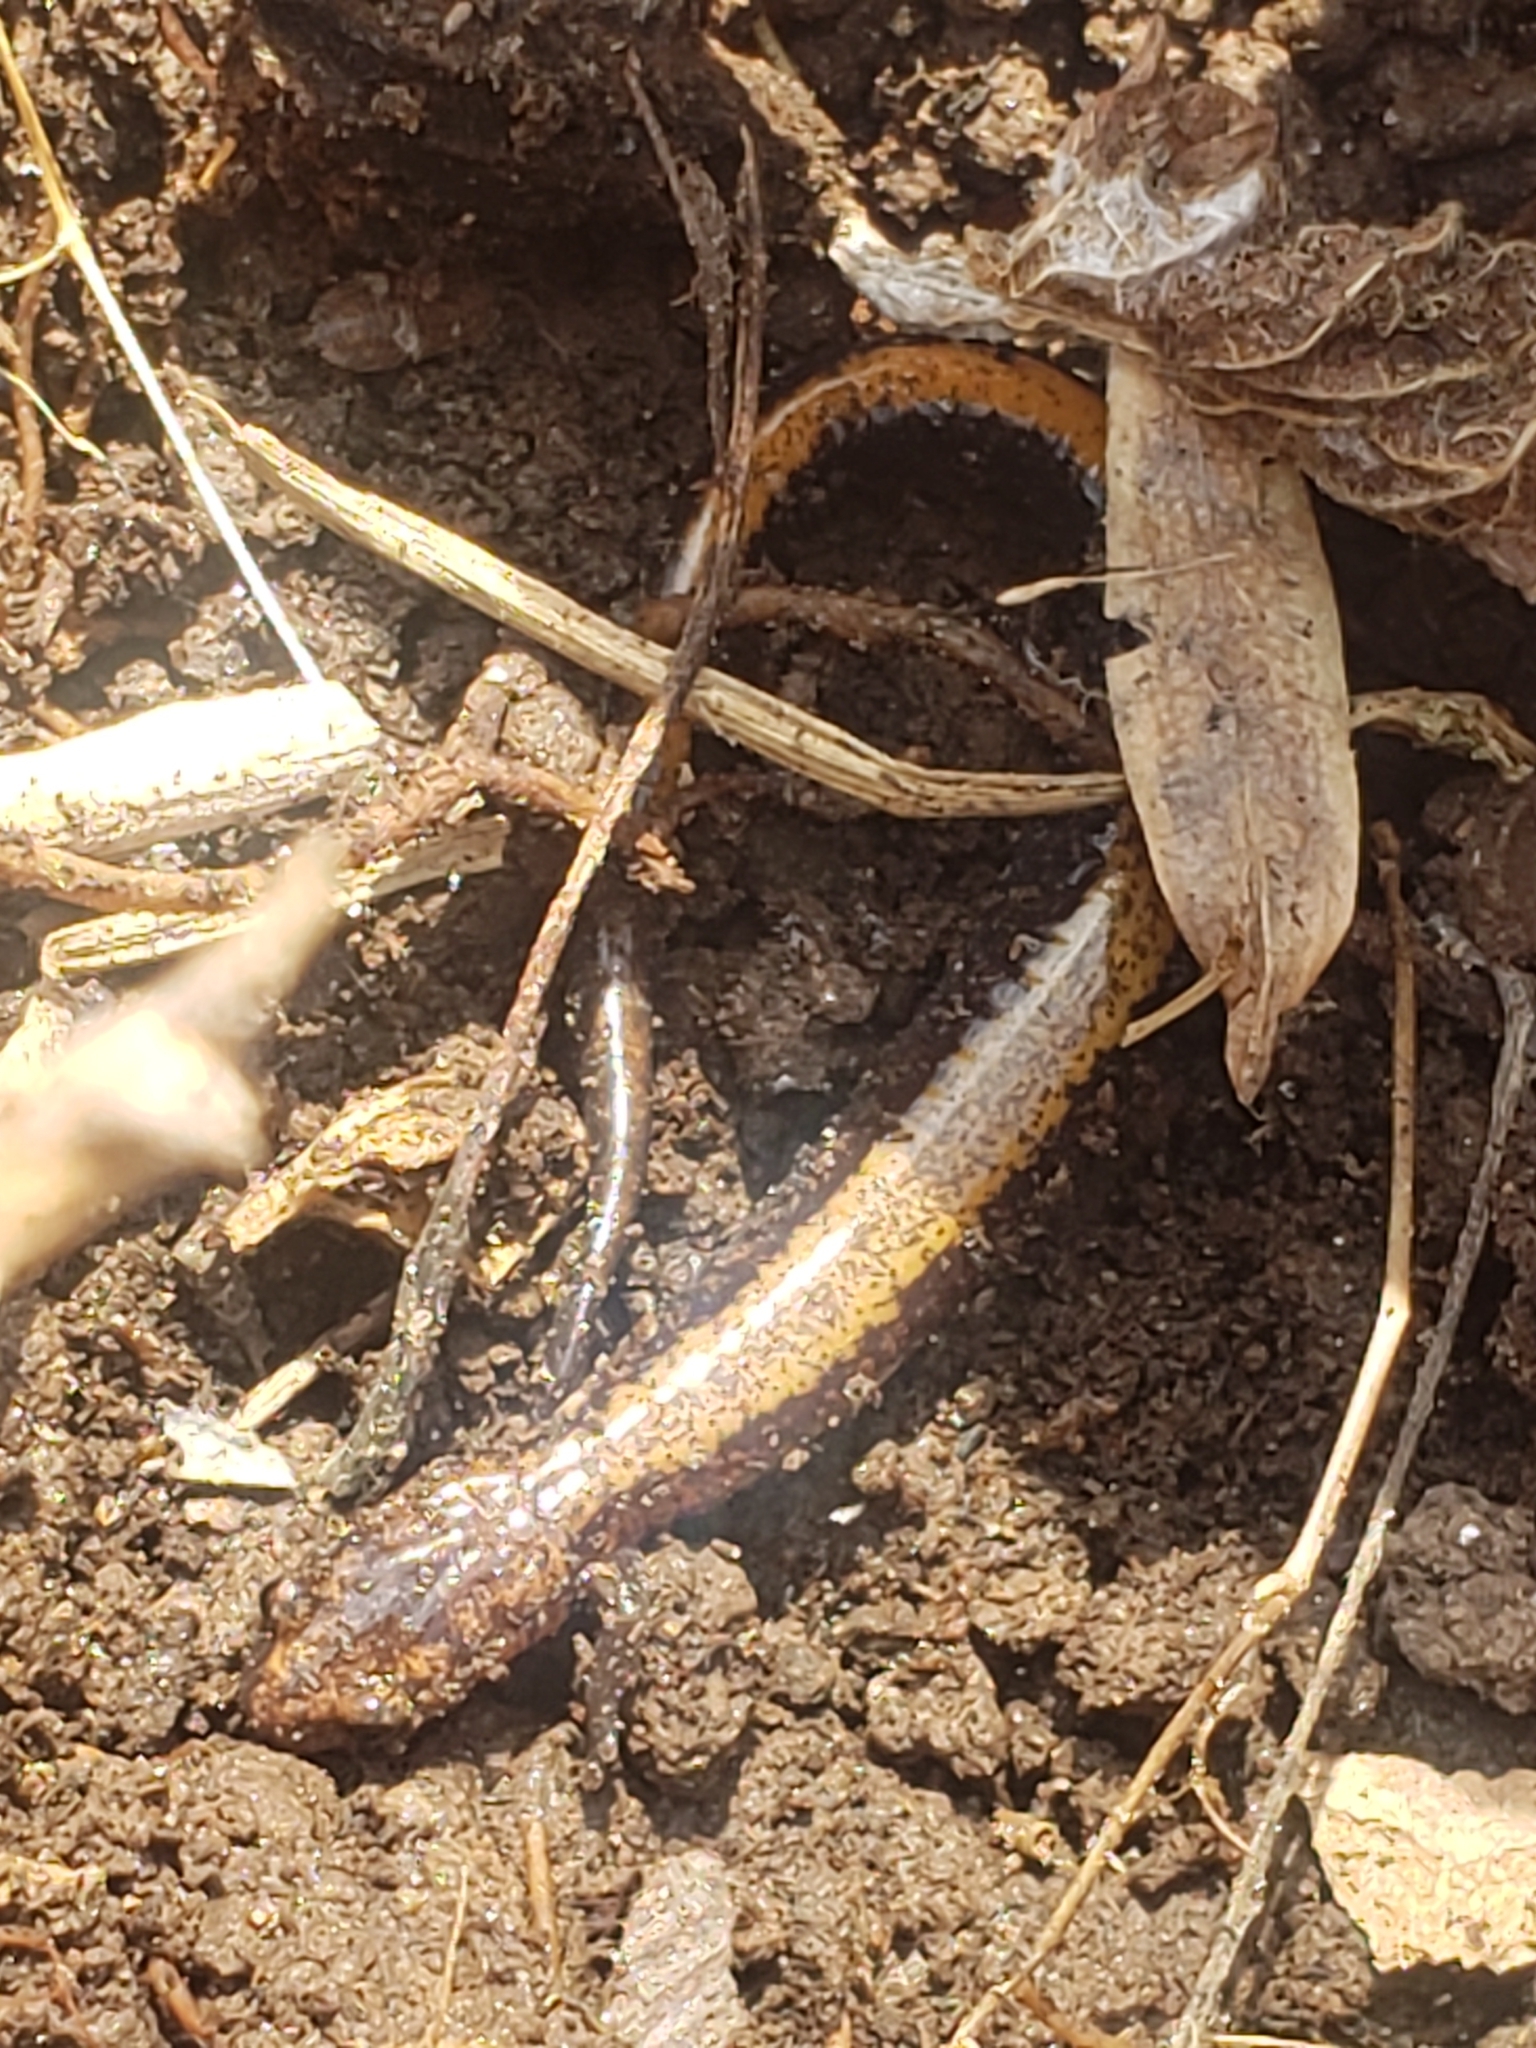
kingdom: Animalia
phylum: Chordata
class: Amphibia
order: Caudata
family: Plethodontidae
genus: Plethodon
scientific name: Plethodon cinereus
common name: Redback salamander
